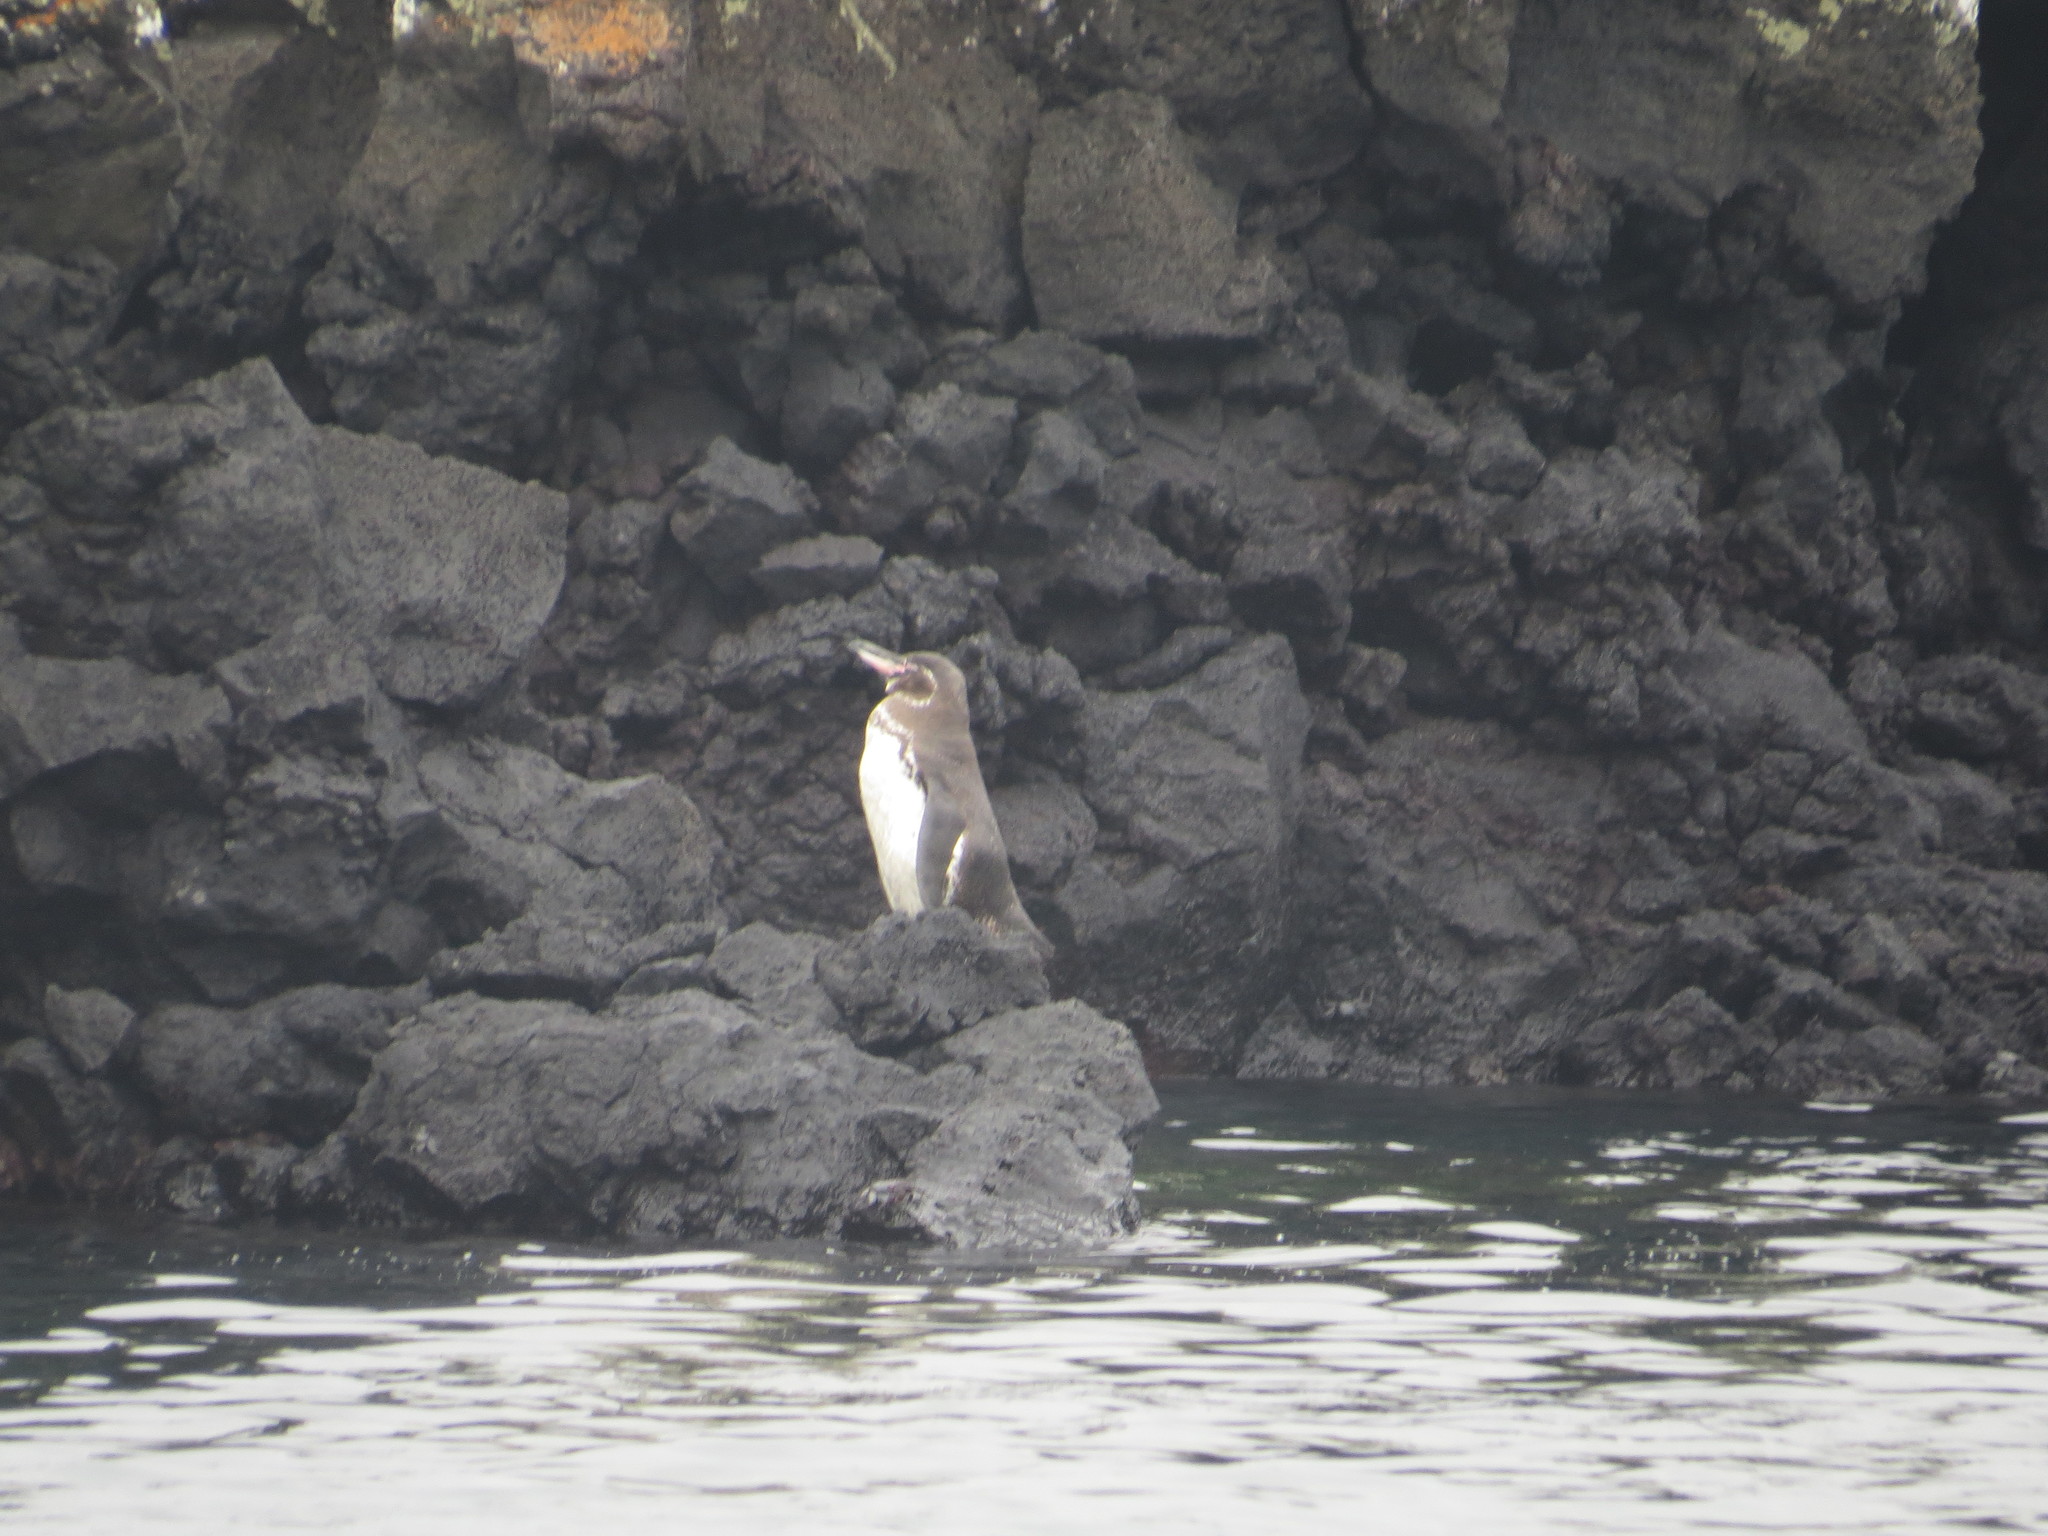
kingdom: Animalia
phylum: Chordata
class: Aves
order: Sphenisciformes
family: Spheniscidae
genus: Spheniscus
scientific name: Spheniscus mendiculus
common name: Galapagos penguin
